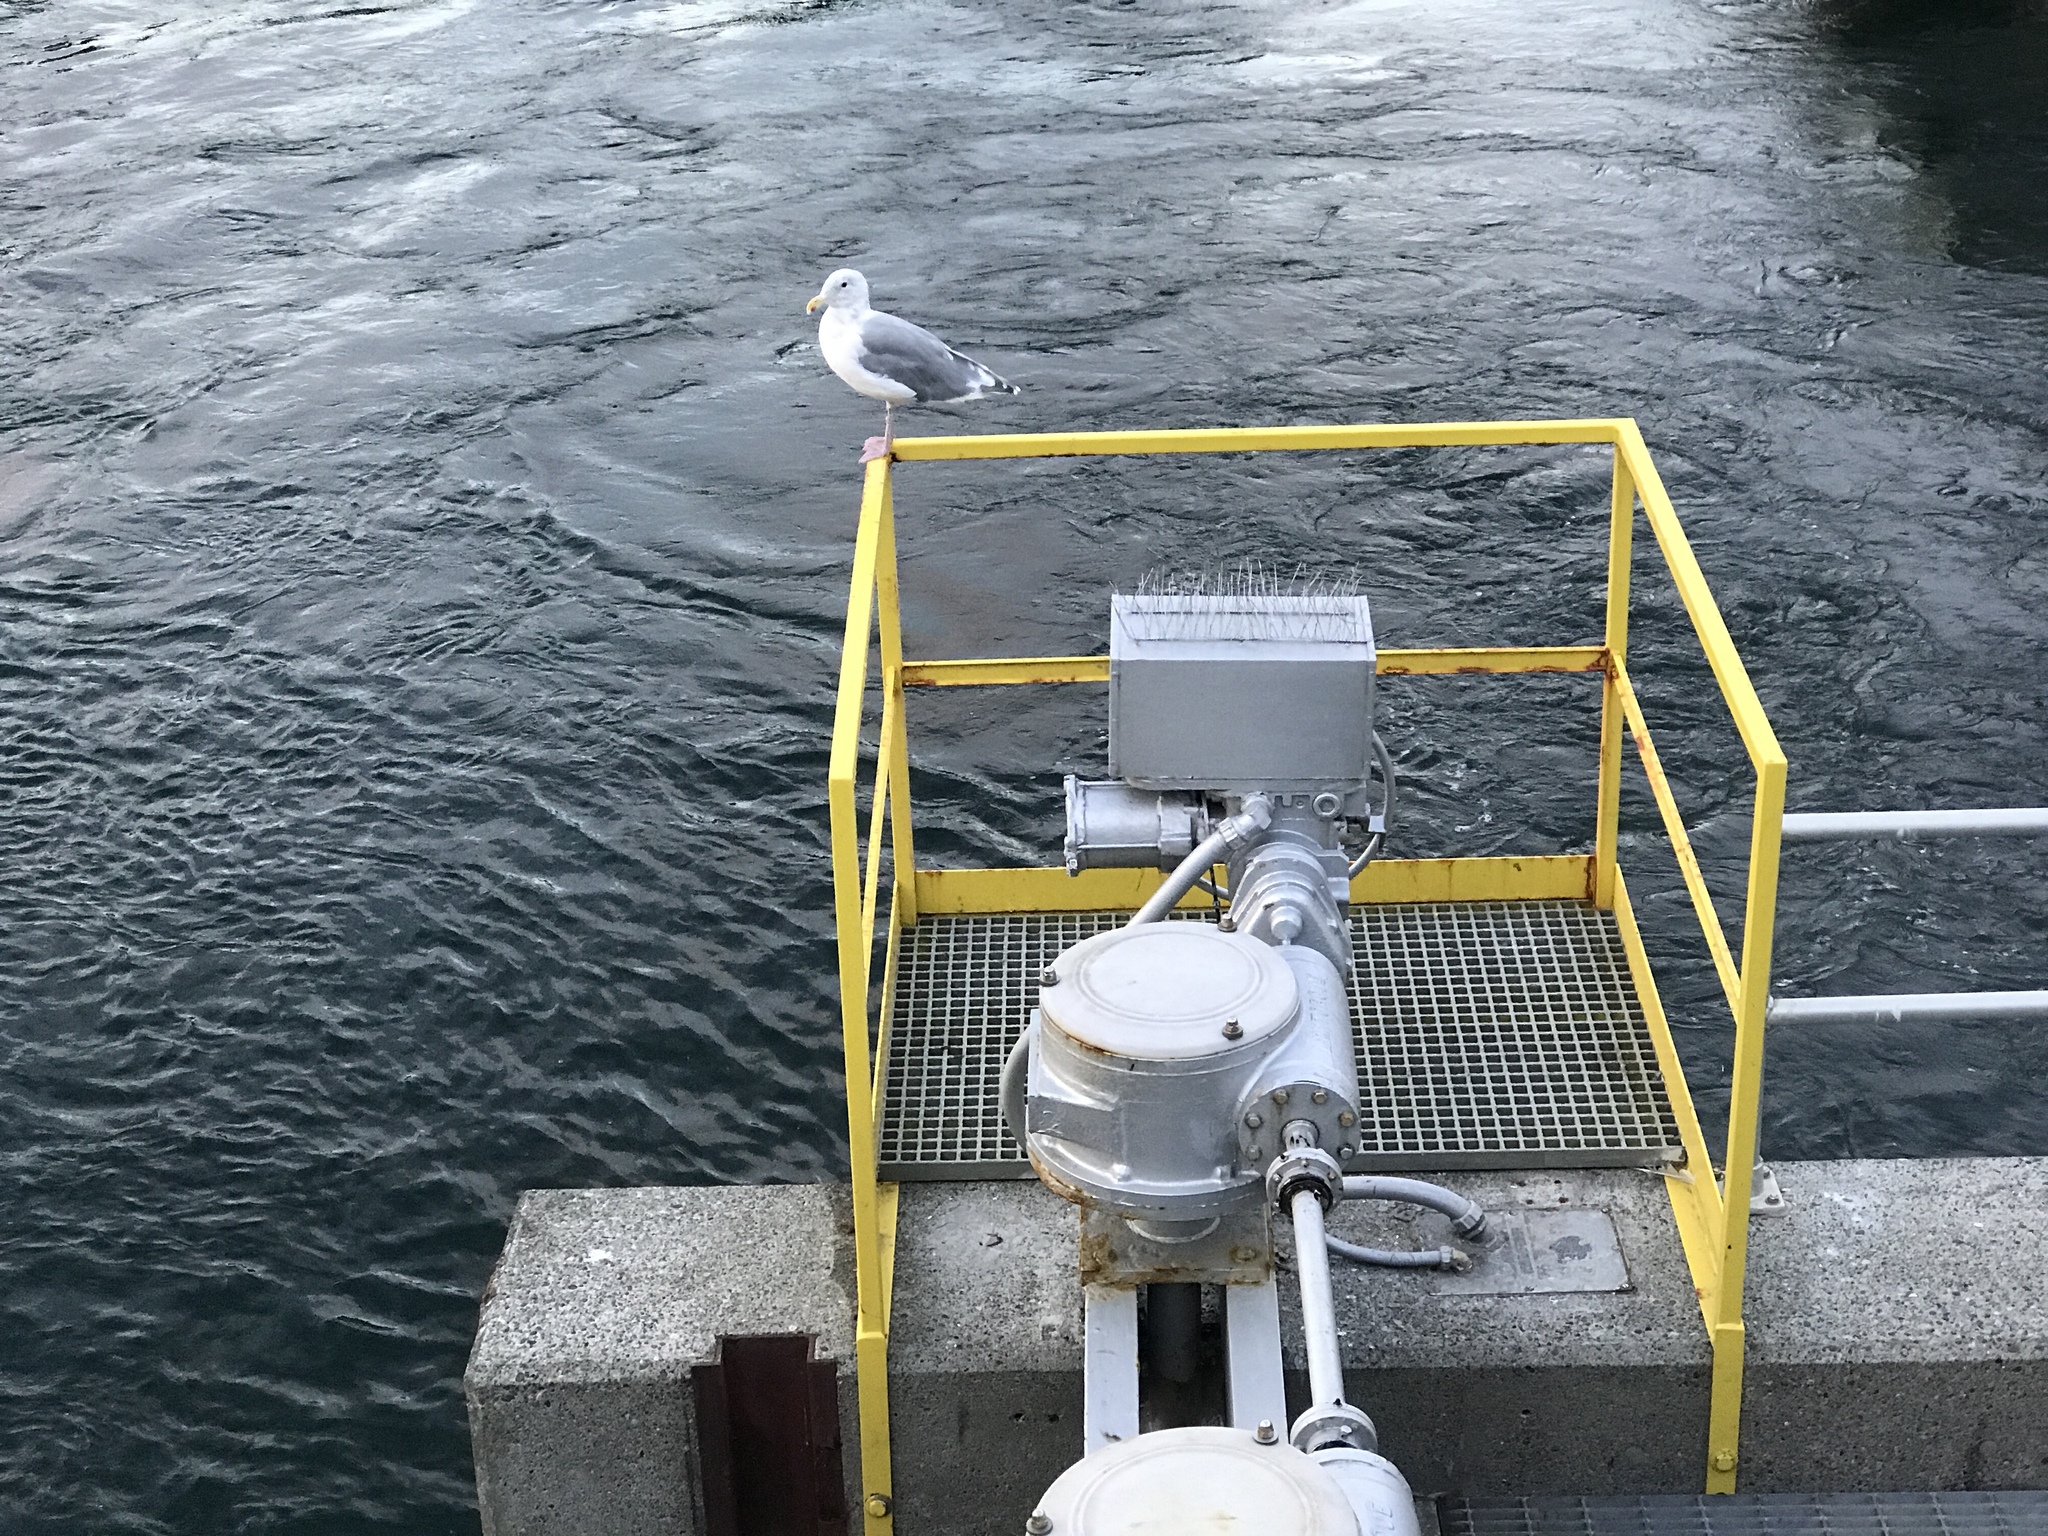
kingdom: Animalia
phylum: Chordata
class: Aves
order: Charadriiformes
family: Laridae
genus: Larus
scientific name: Larus
